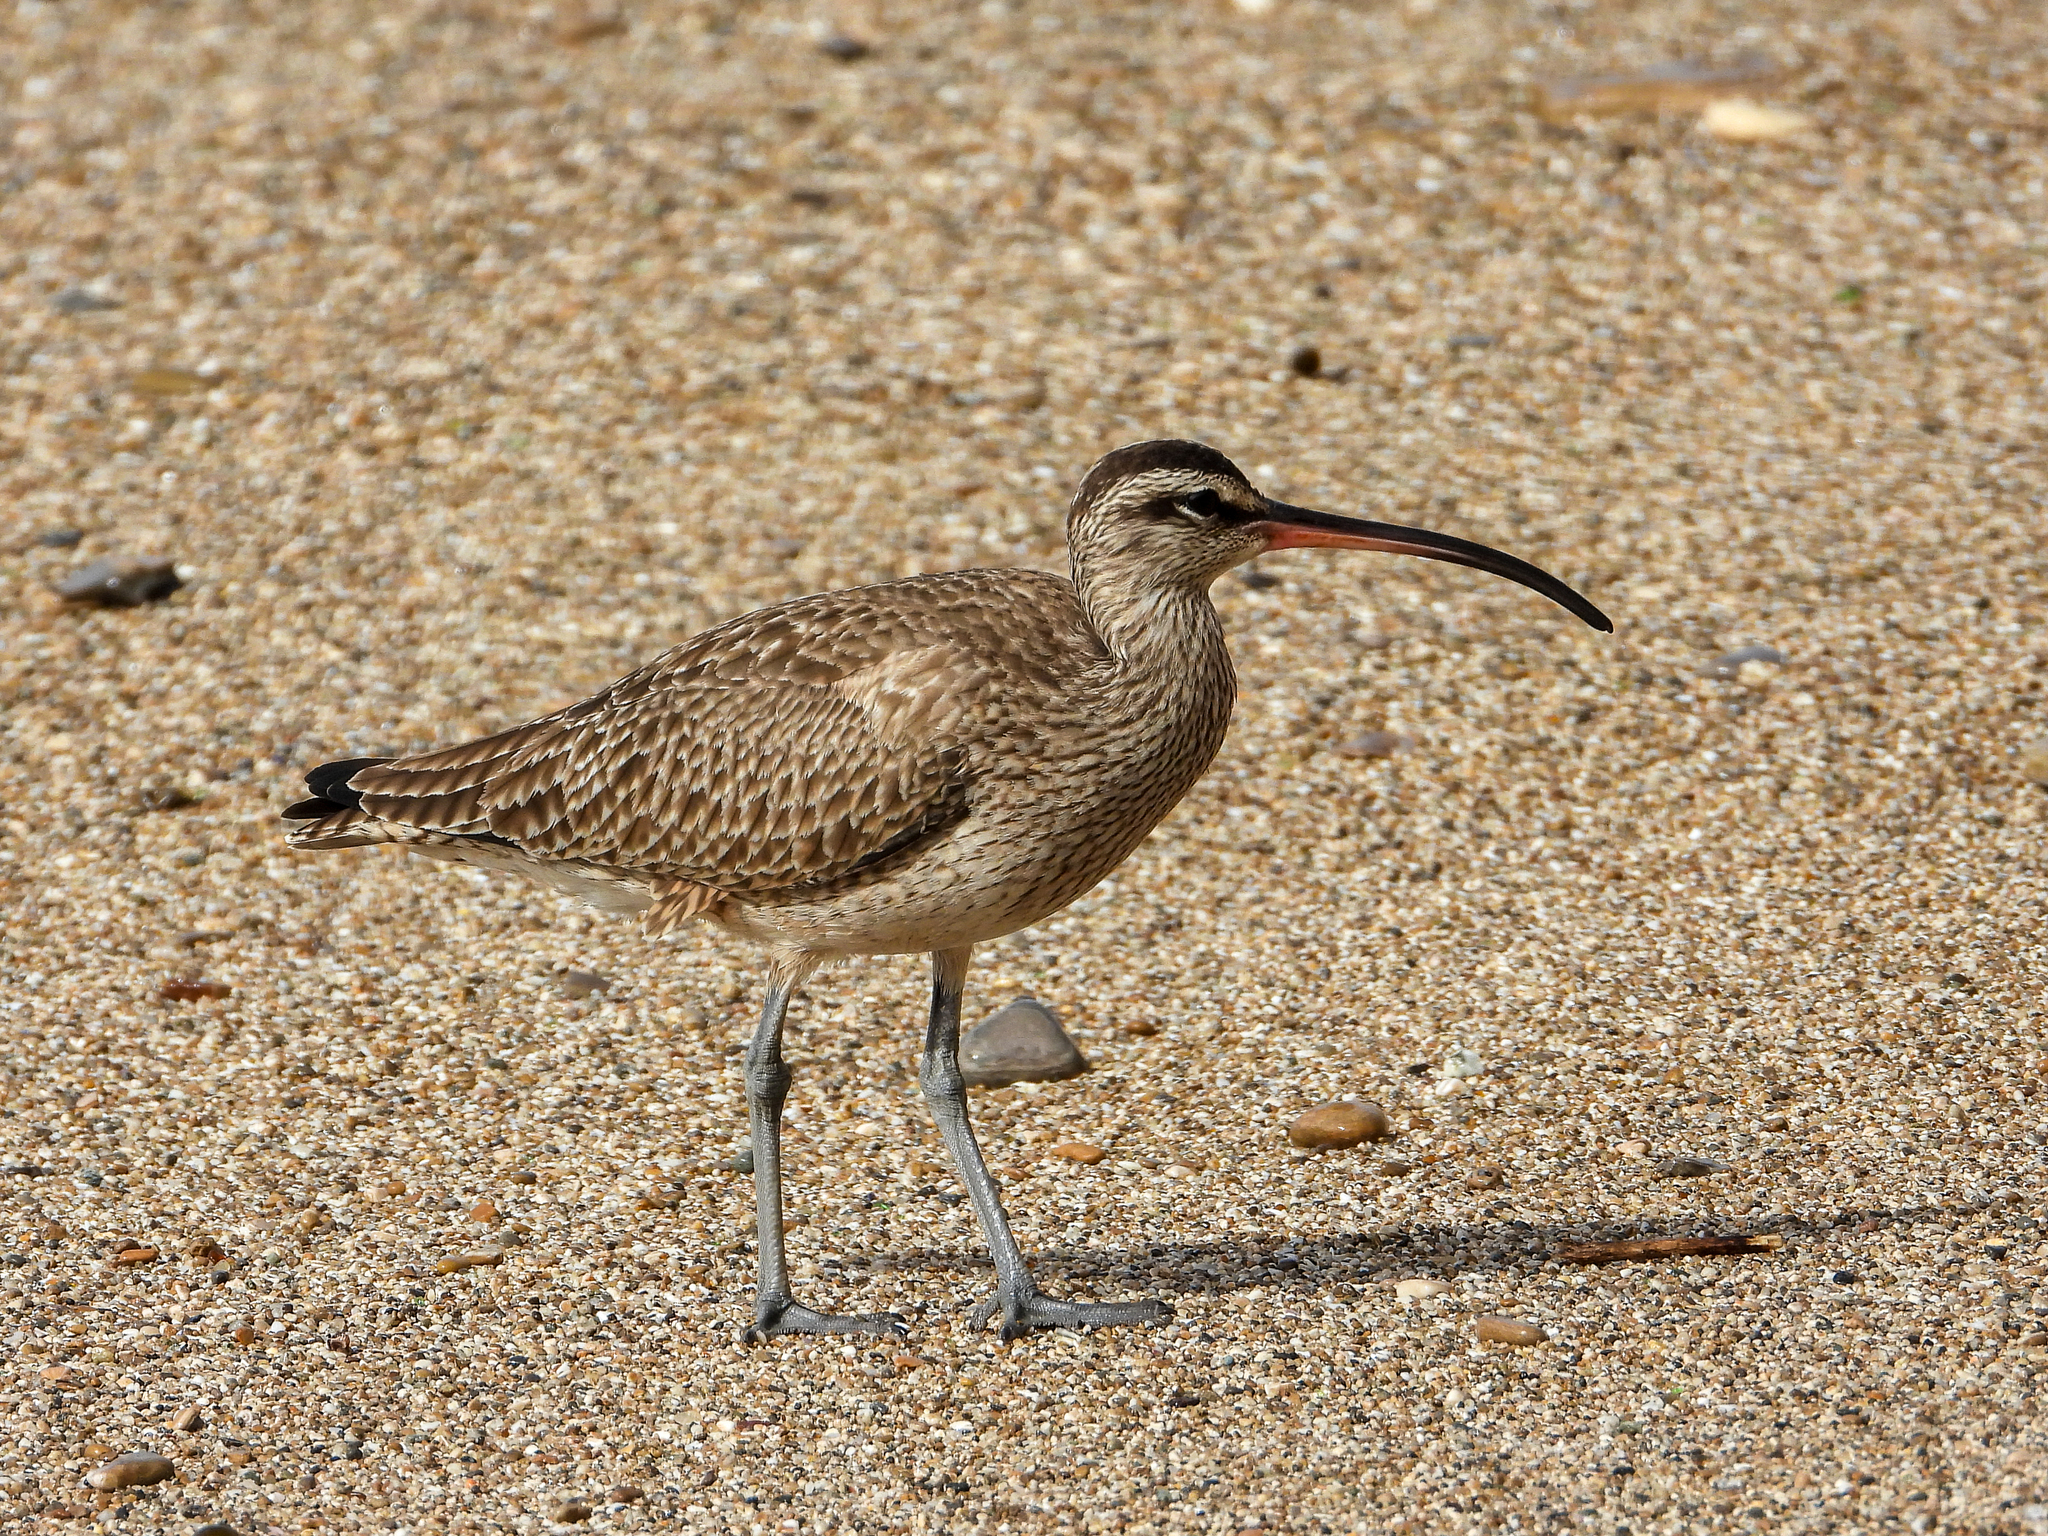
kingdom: Animalia
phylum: Chordata
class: Aves
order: Charadriiformes
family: Scolopacidae
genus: Numenius
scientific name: Numenius phaeopus
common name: Whimbrel
